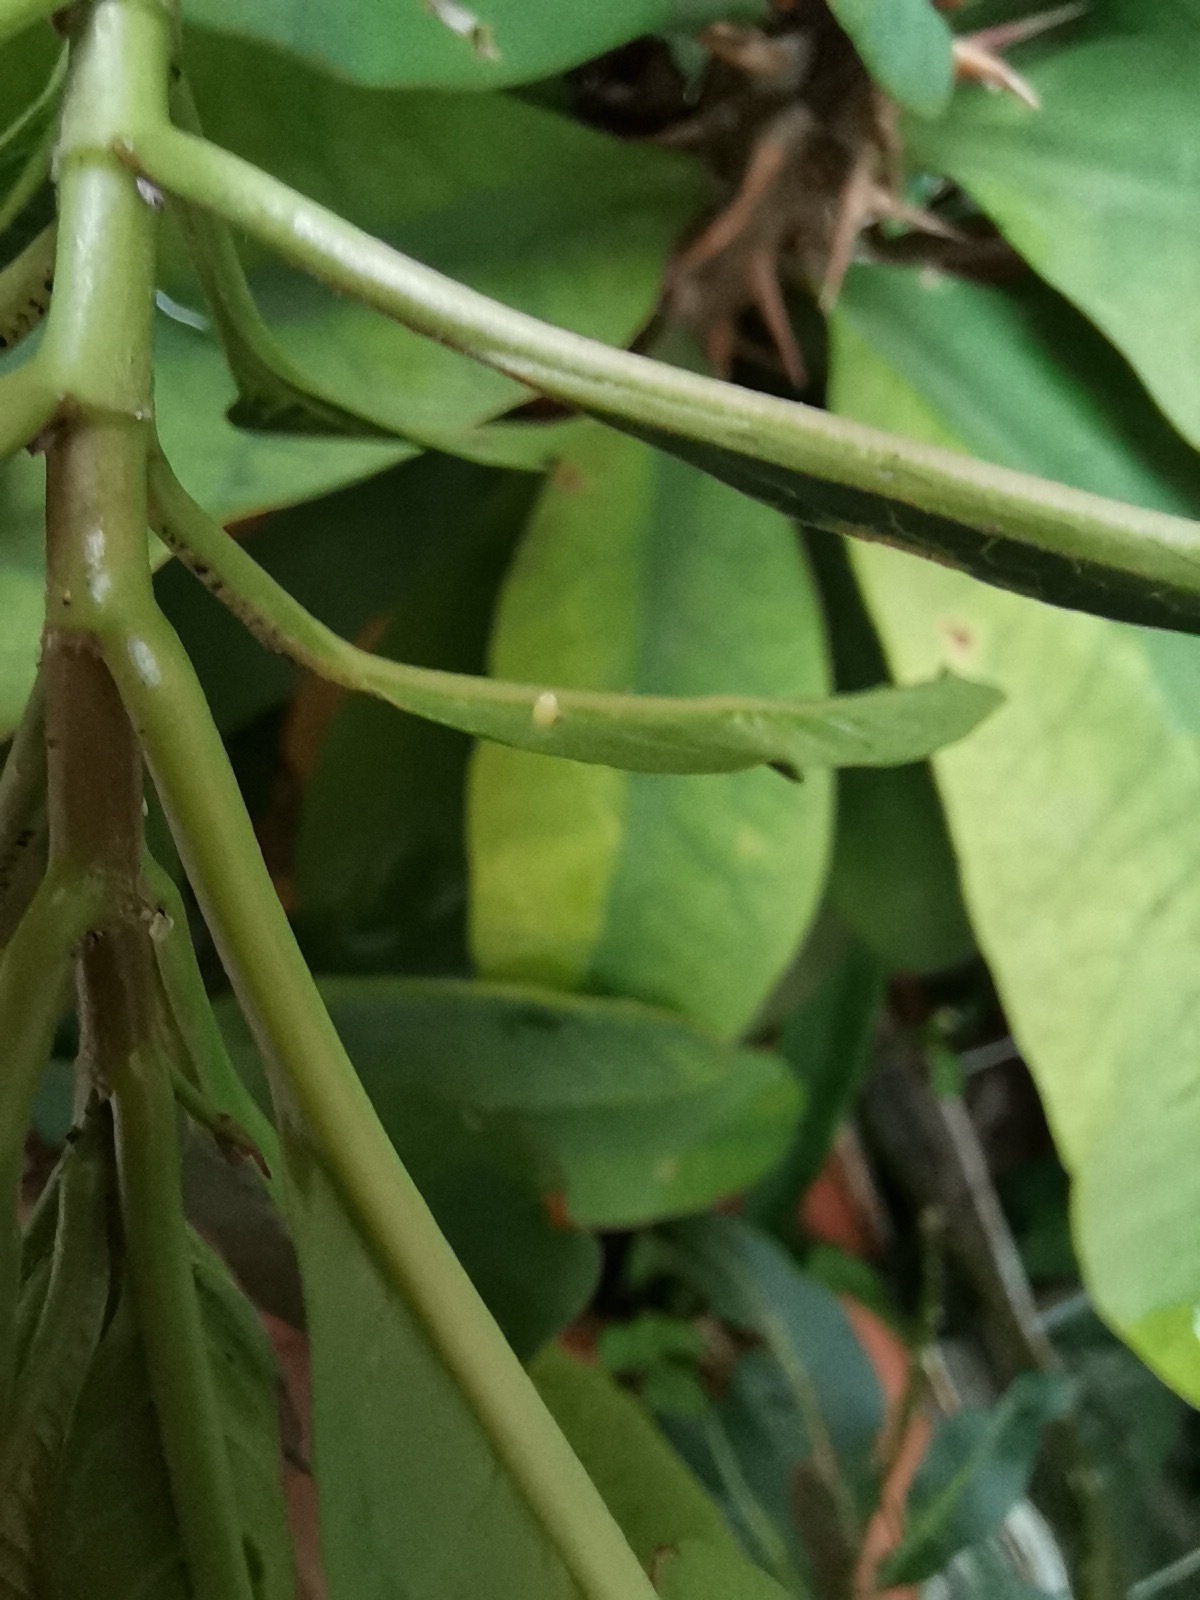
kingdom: Animalia
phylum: Arthropoda
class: Insecta
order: Lepidoptera
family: Nymphalidae
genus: Danaus
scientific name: Danaus plexippus
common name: Monarch
